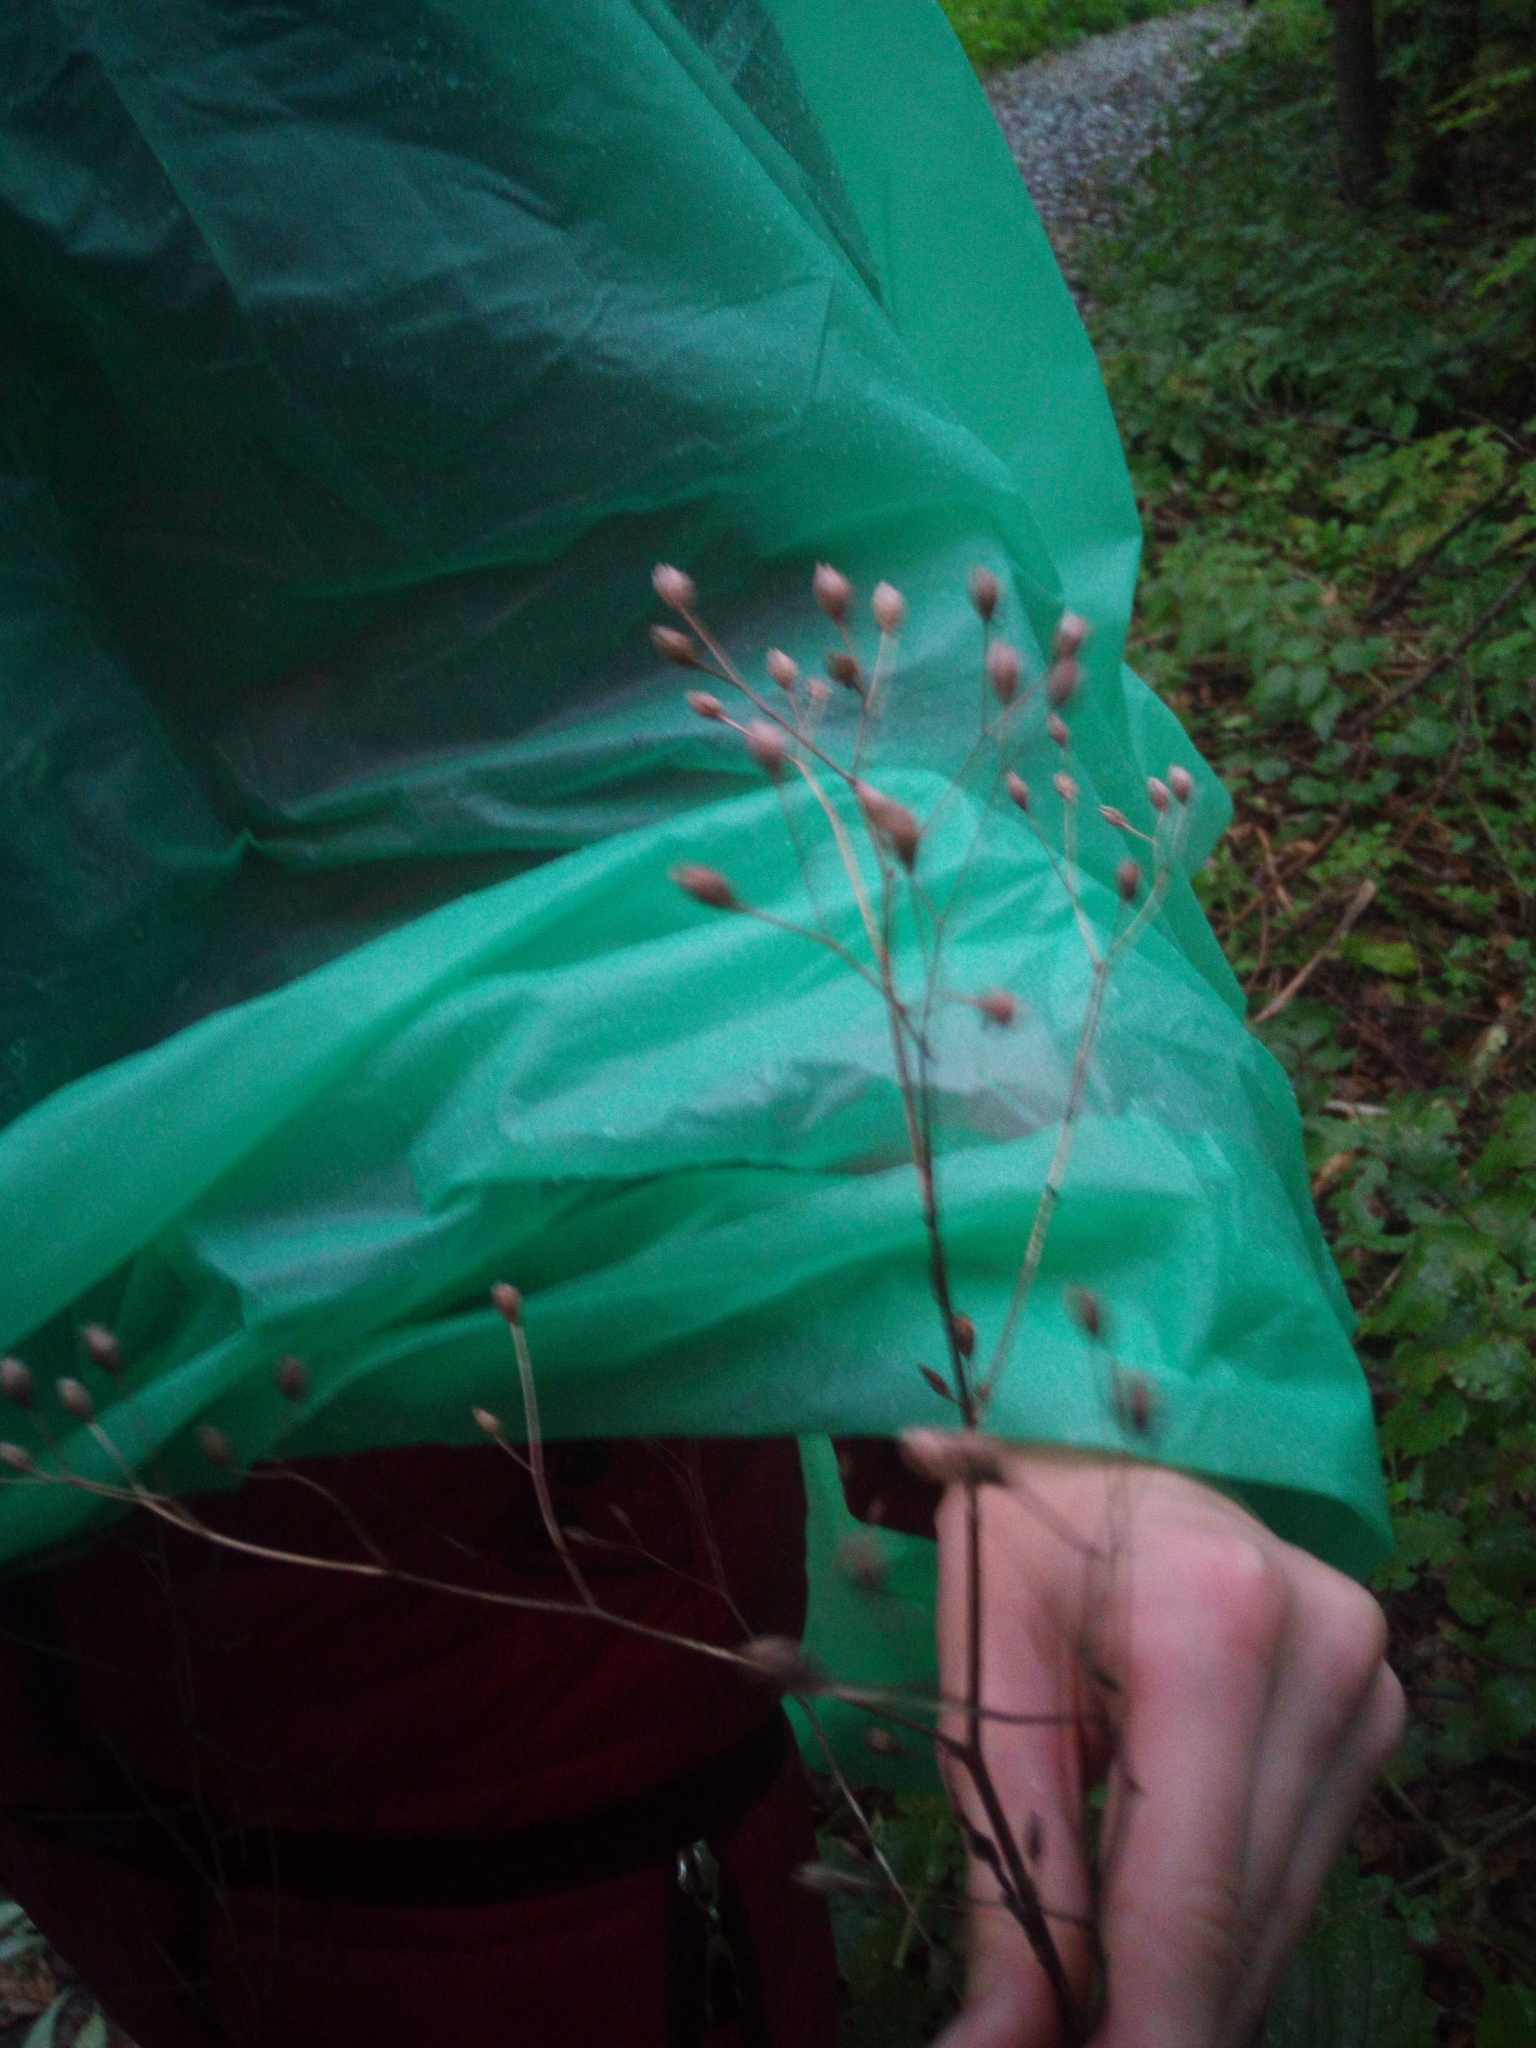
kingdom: Plantae
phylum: Tracheophyta
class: Magnoliopsida
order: Asterales
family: Asteraceae
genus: Lapsana
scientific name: Lapsana communis
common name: Nipplewort
